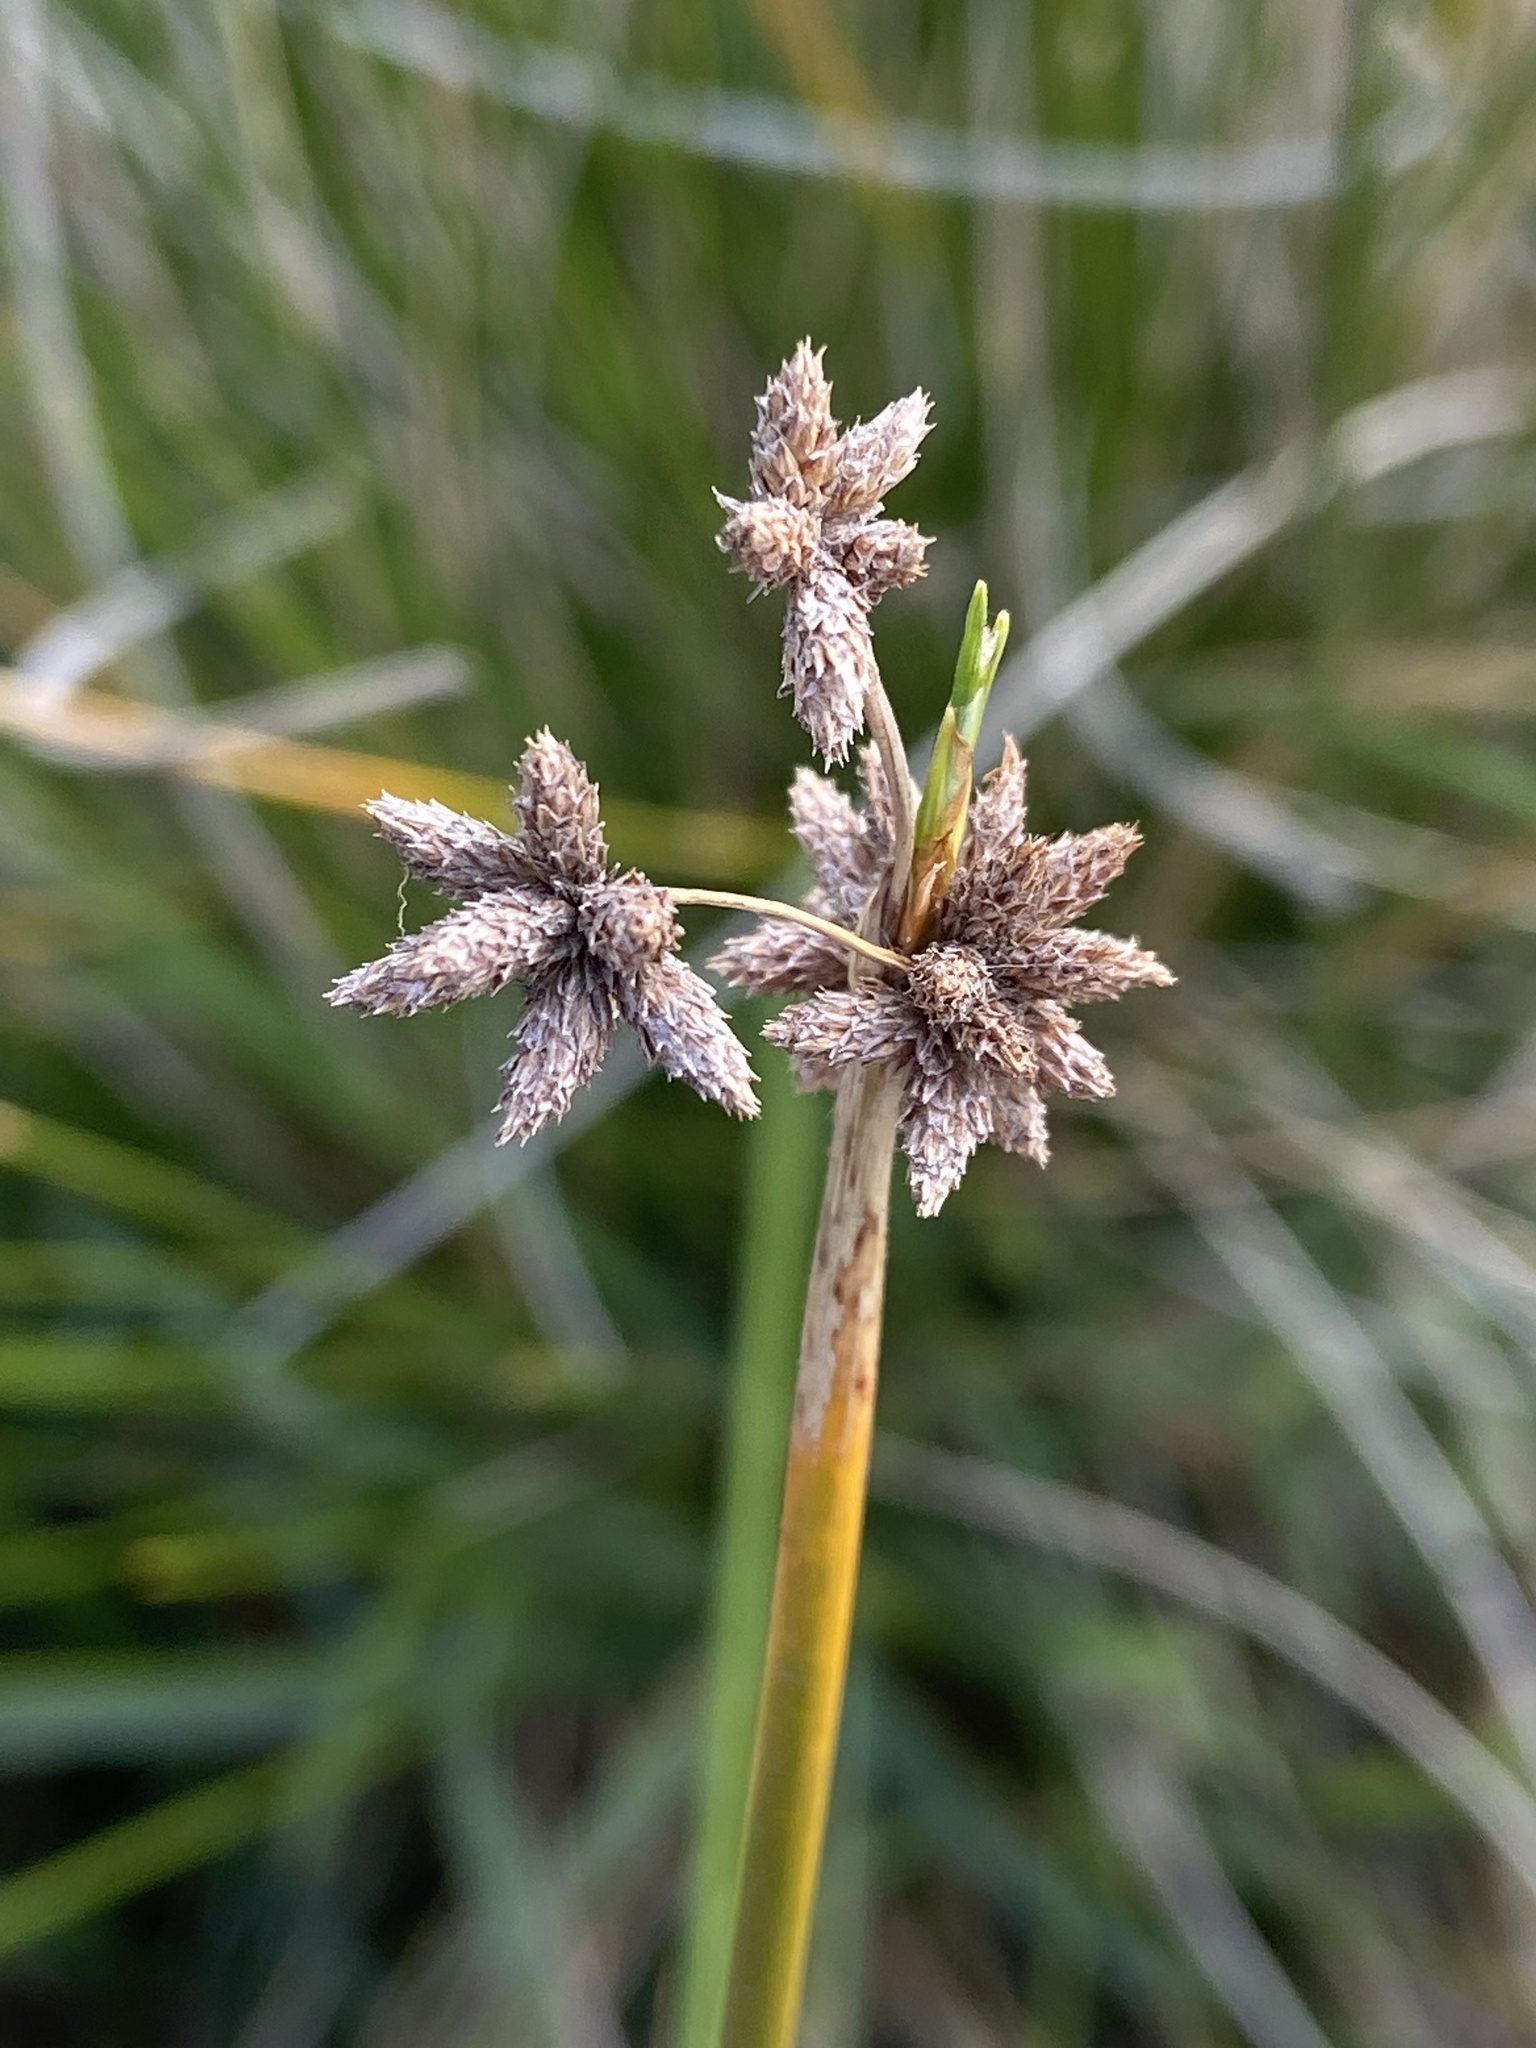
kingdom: Plantae
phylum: Tracheophyta
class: Liliopsida
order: Poales
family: Cyperaceae
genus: Isolepis
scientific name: Isolepis prolifera
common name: Proliferating bulrush
